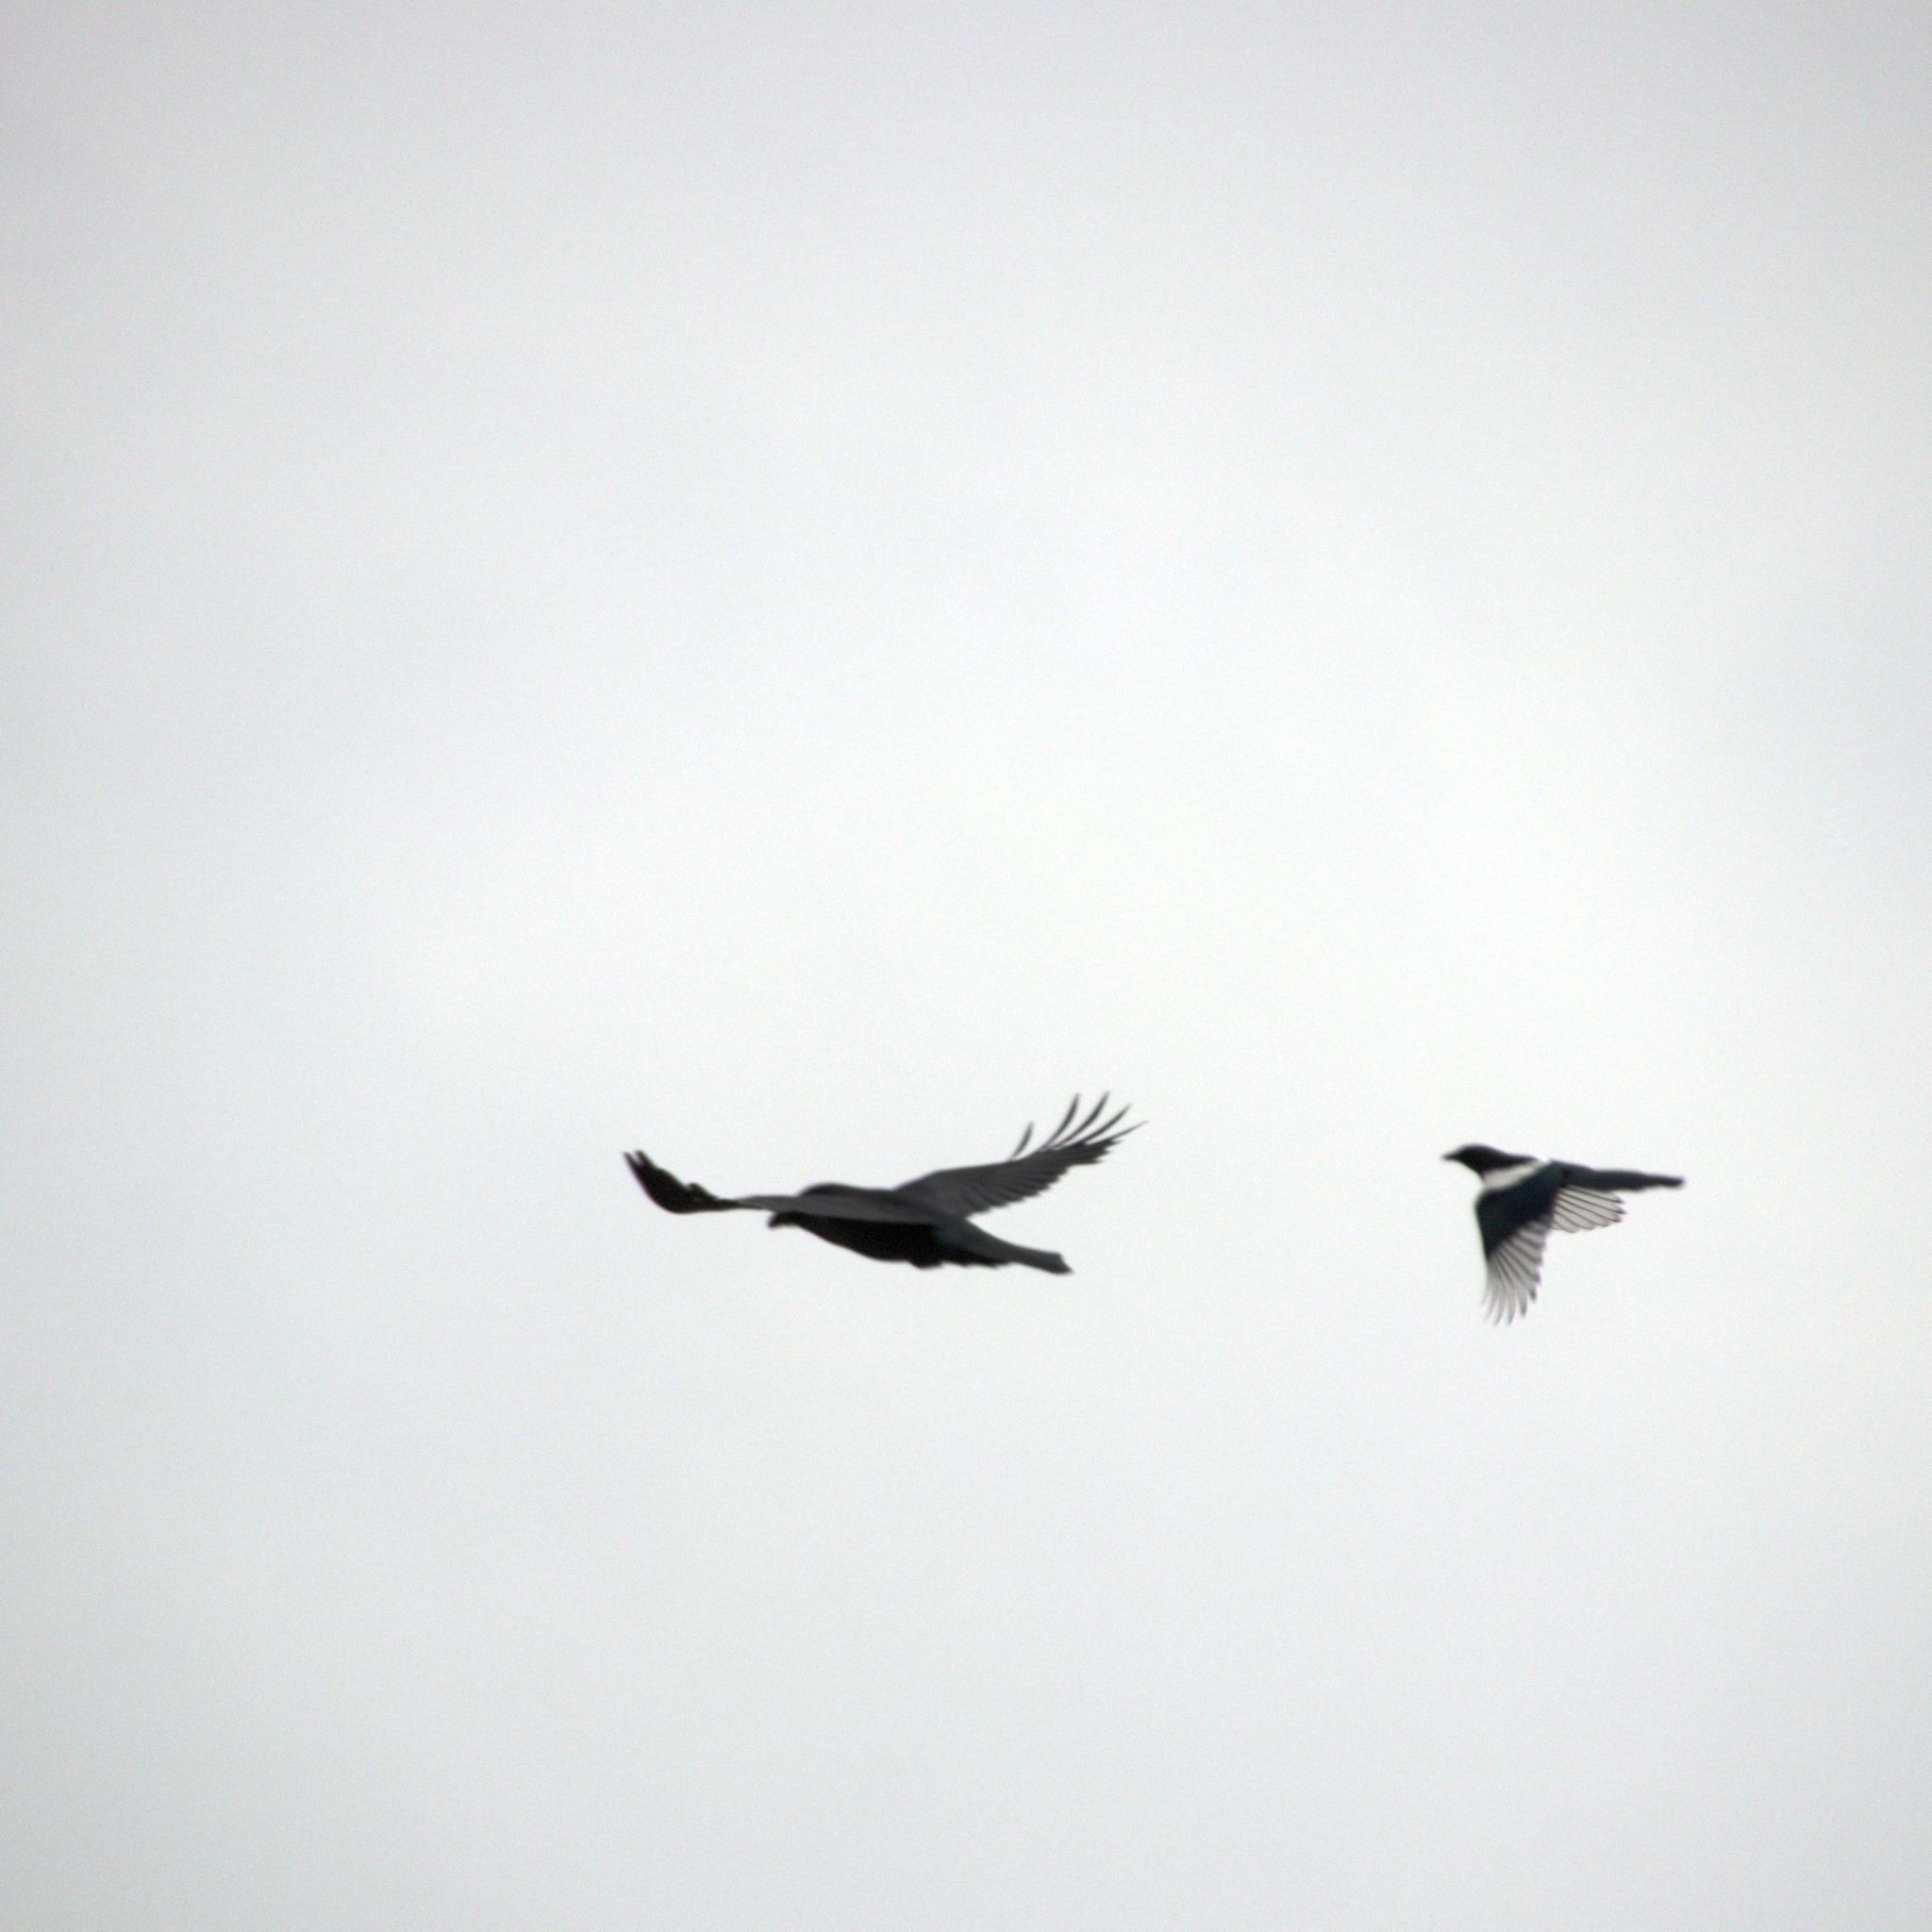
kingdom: Animalia
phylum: Chordata
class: Aves
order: Passeriformes
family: Corvidae
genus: Corvus
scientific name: Corvus corax
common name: Common raven
